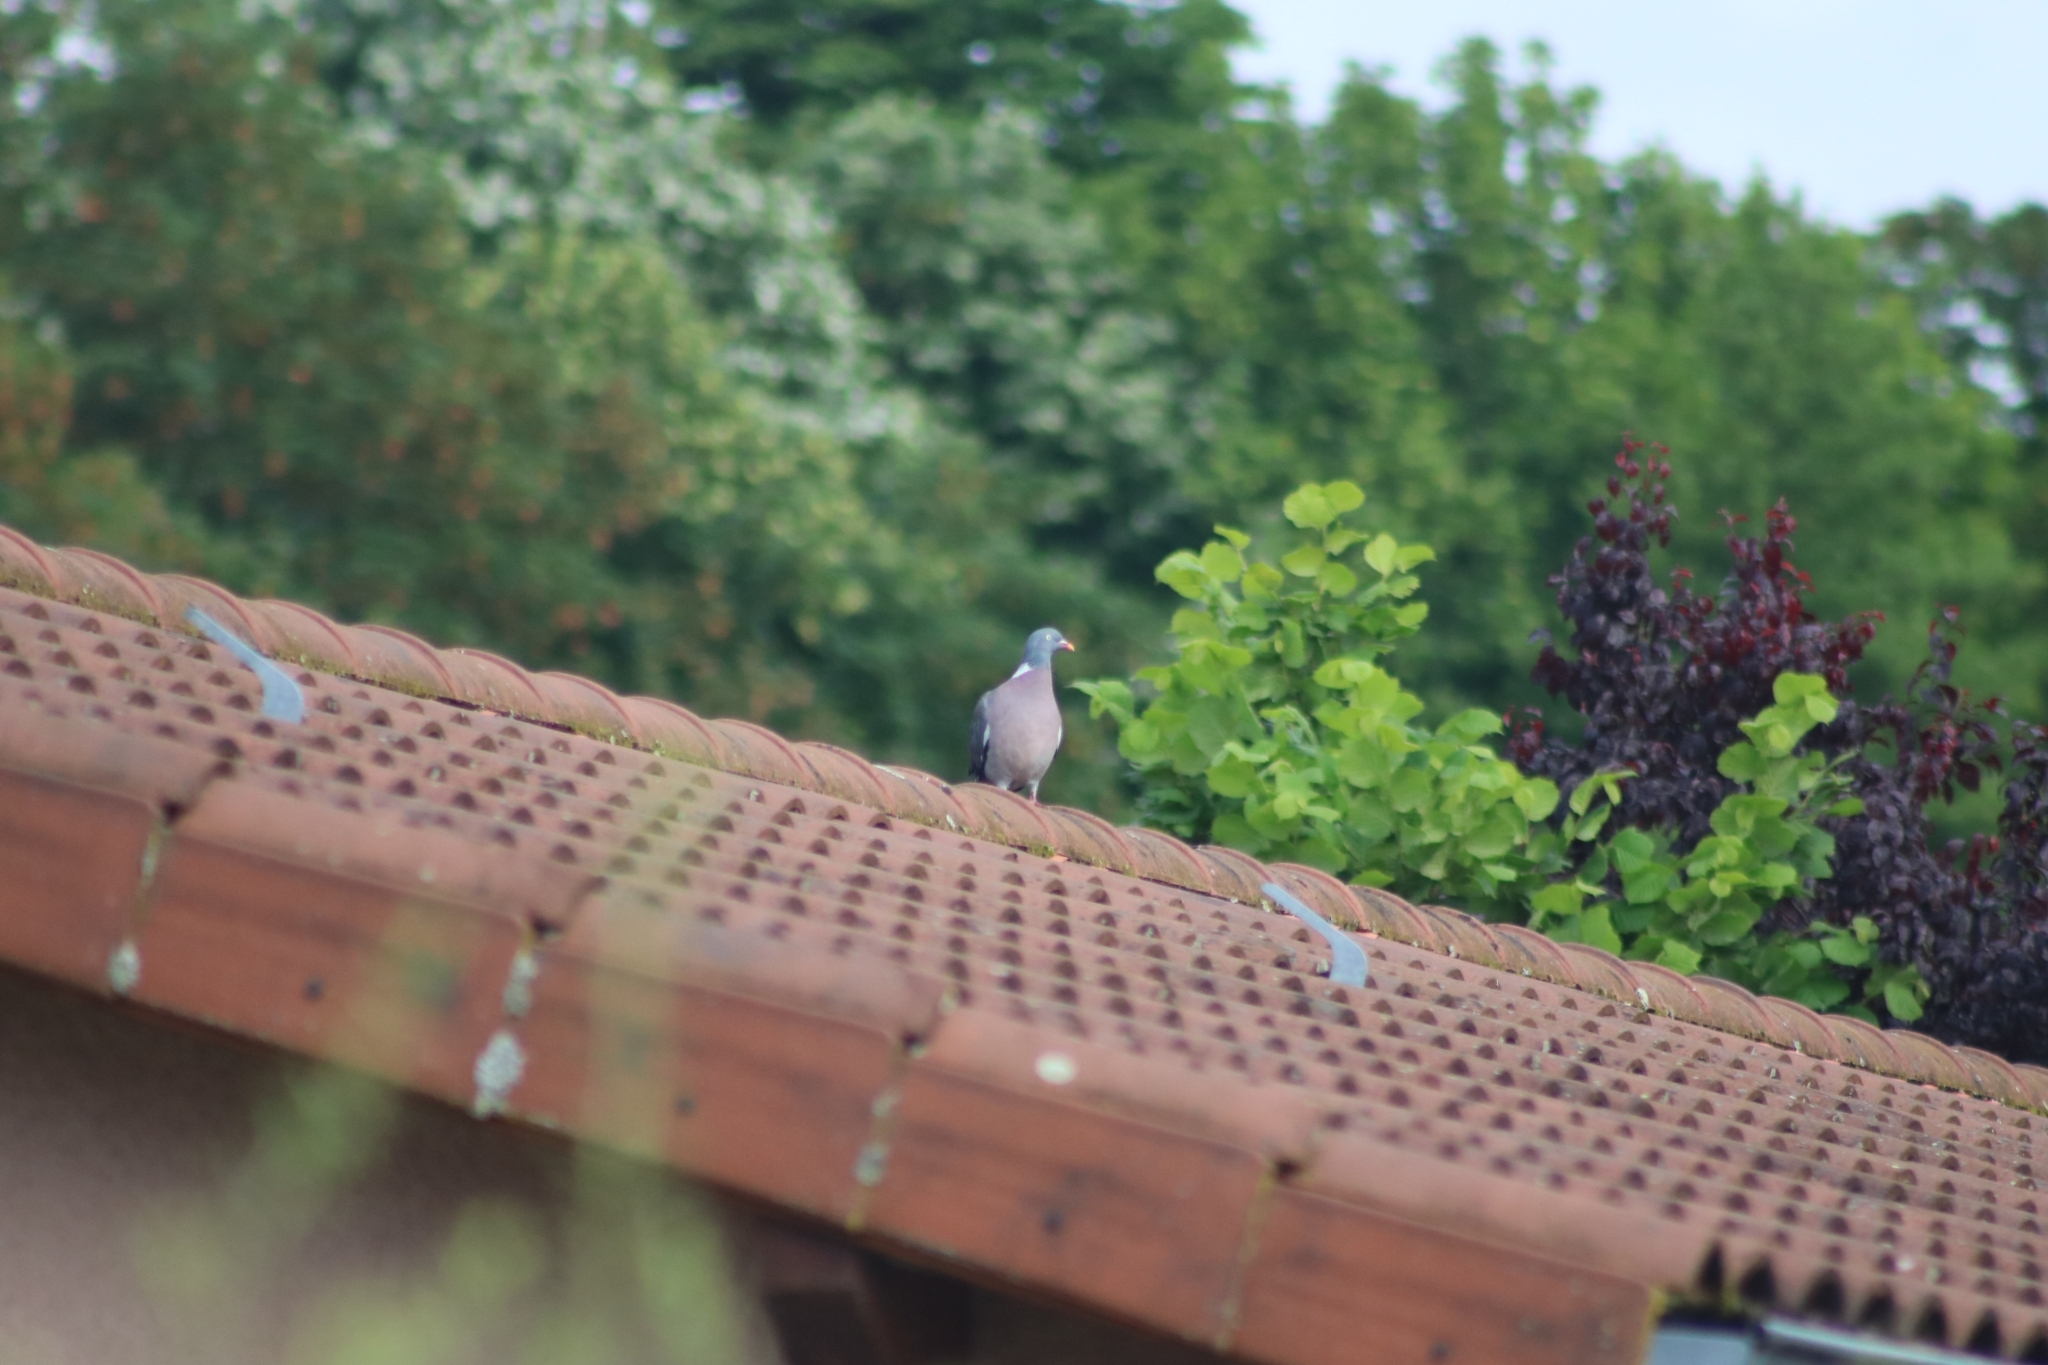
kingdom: Animalia
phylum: Chordata
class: Aves
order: Columbiformes
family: Columbidae
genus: Columba
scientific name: Columba palumbus
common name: Common wood pigeon
